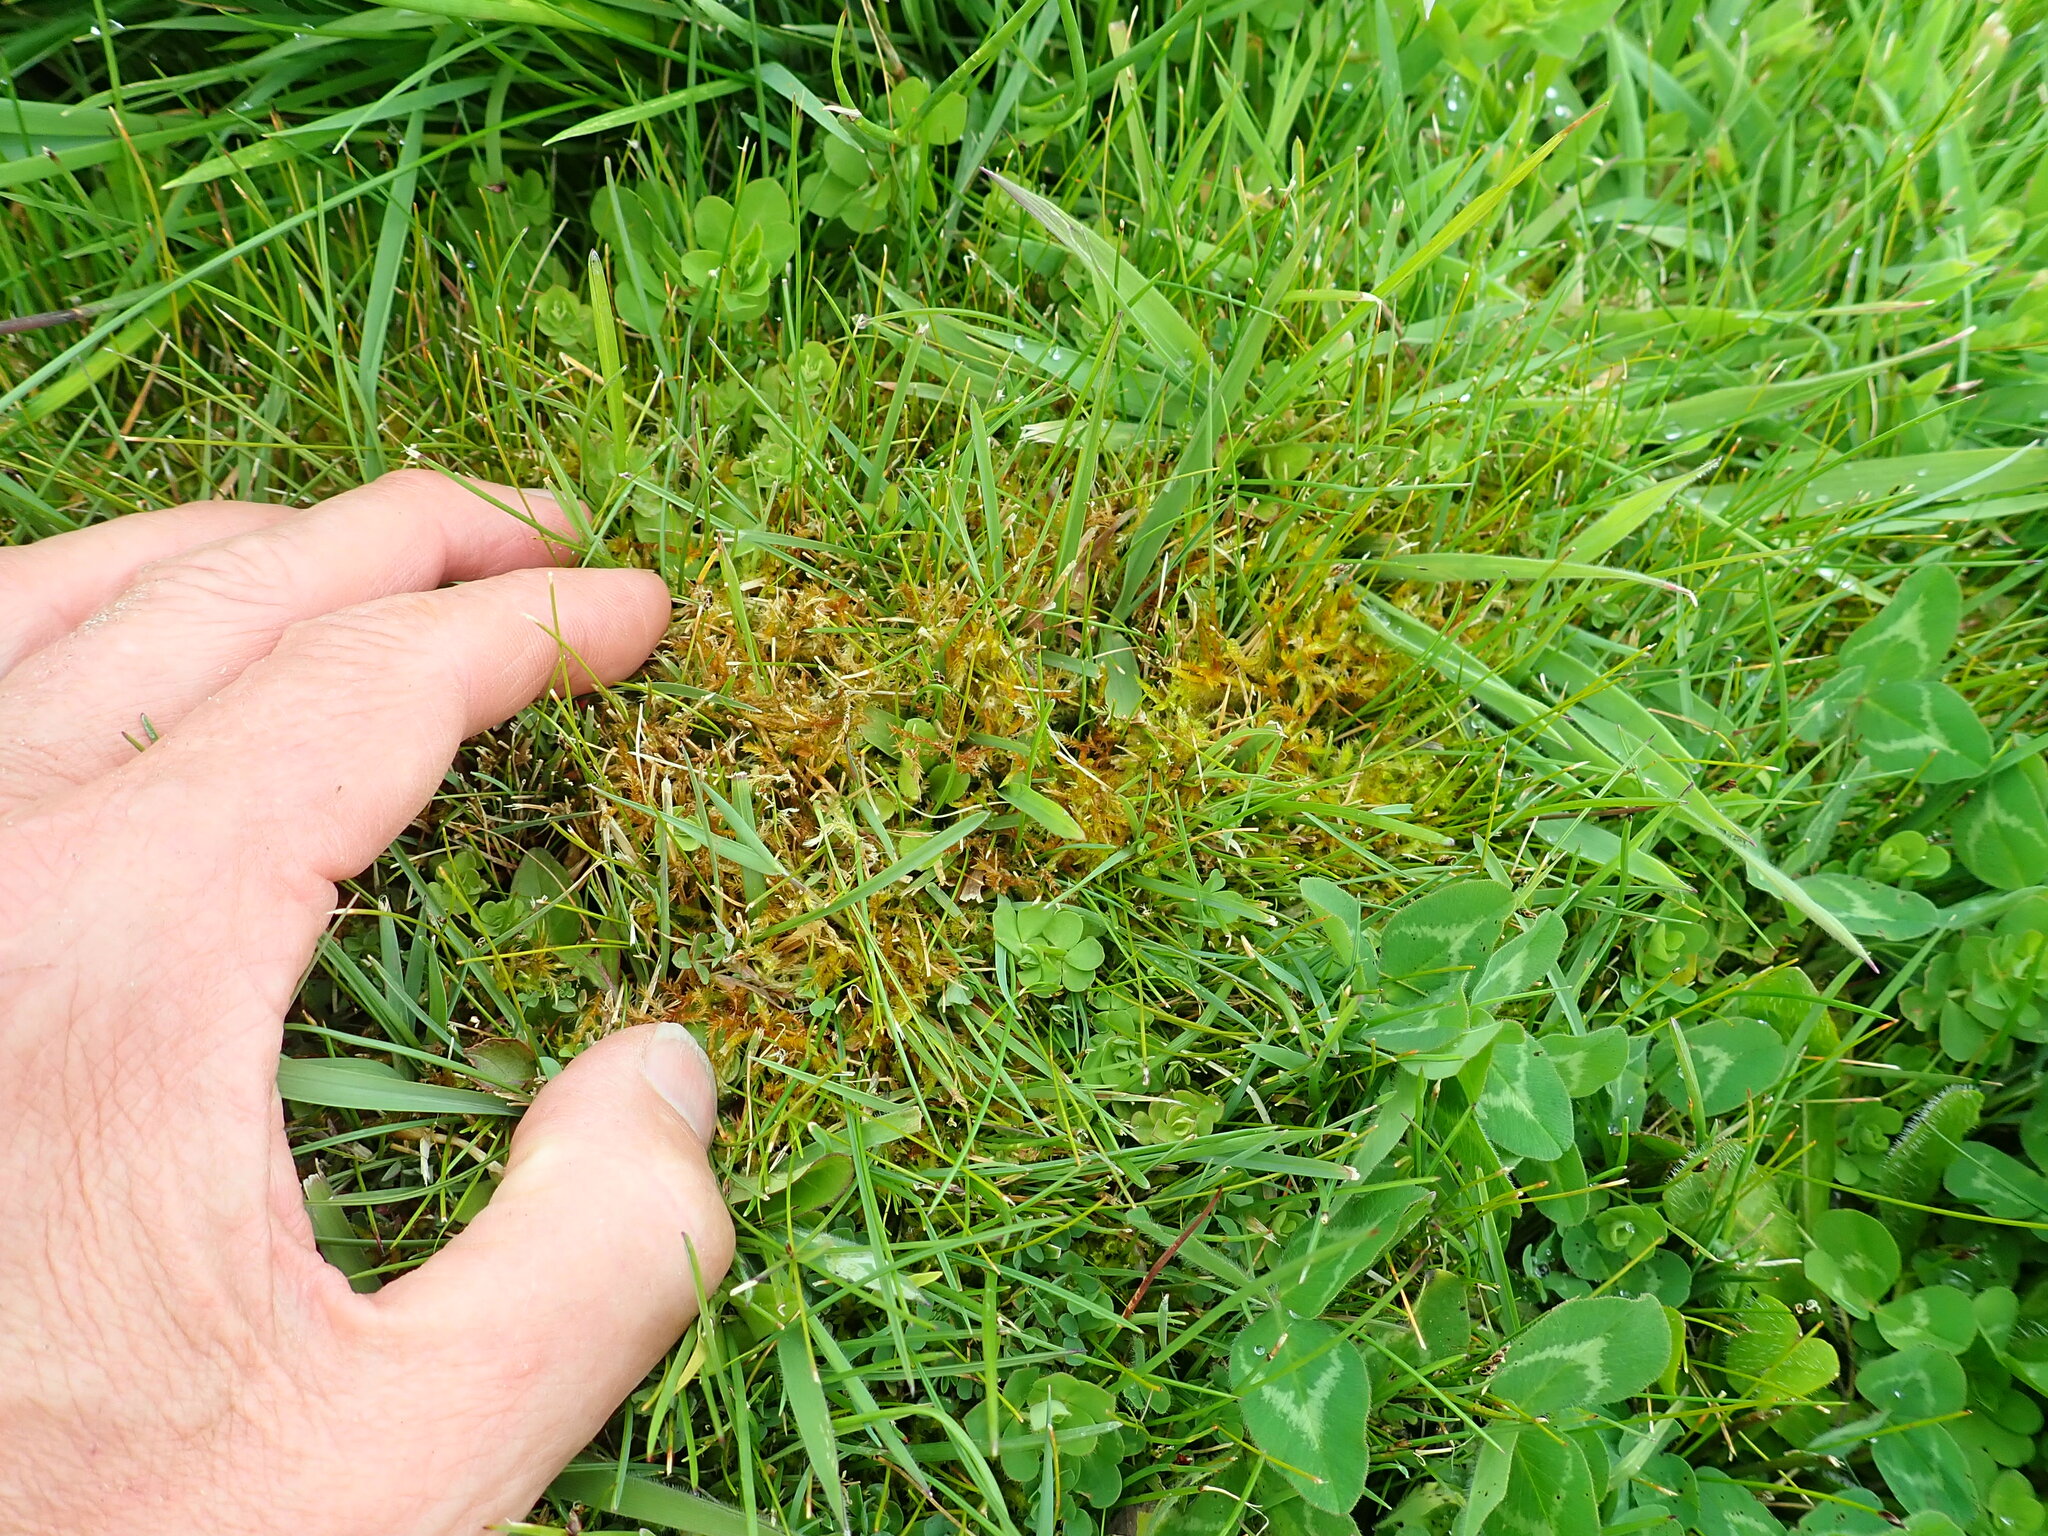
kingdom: Plantae
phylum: Bryophyta
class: Bryopsida
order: Hypnales
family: Pylaisiaceae
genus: Calliergonella
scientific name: Calliergonella cuspidata
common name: Common large wetland moss
